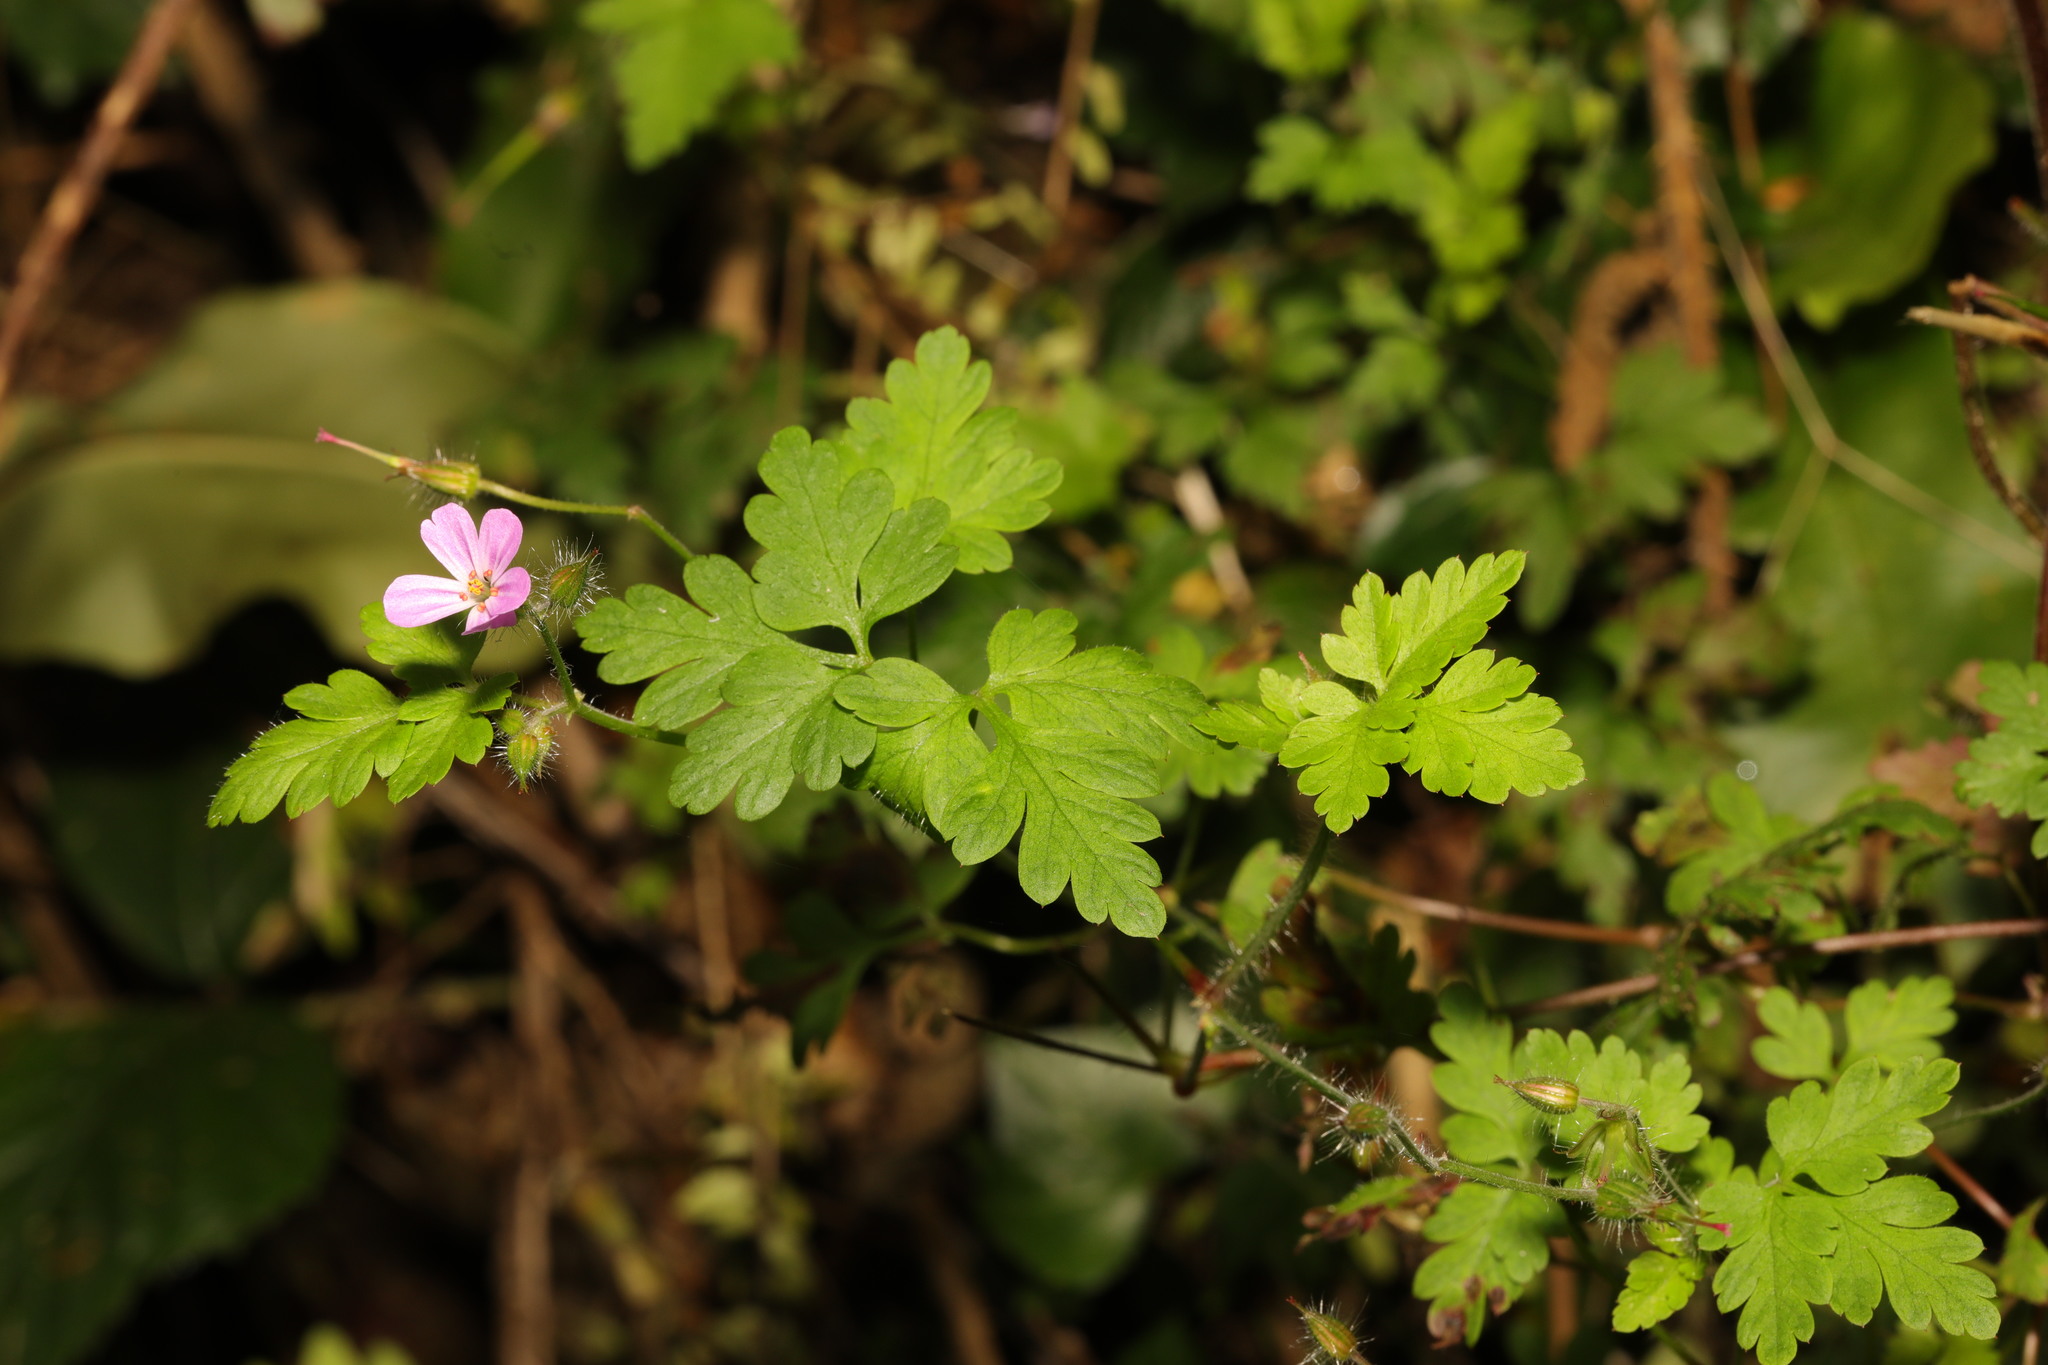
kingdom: Plantae
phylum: Tracheophyta
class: Magnoliopsida
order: Geraniales
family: Geraniaceae
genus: Geranium
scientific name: Geranium robertianum
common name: Herb-robert
